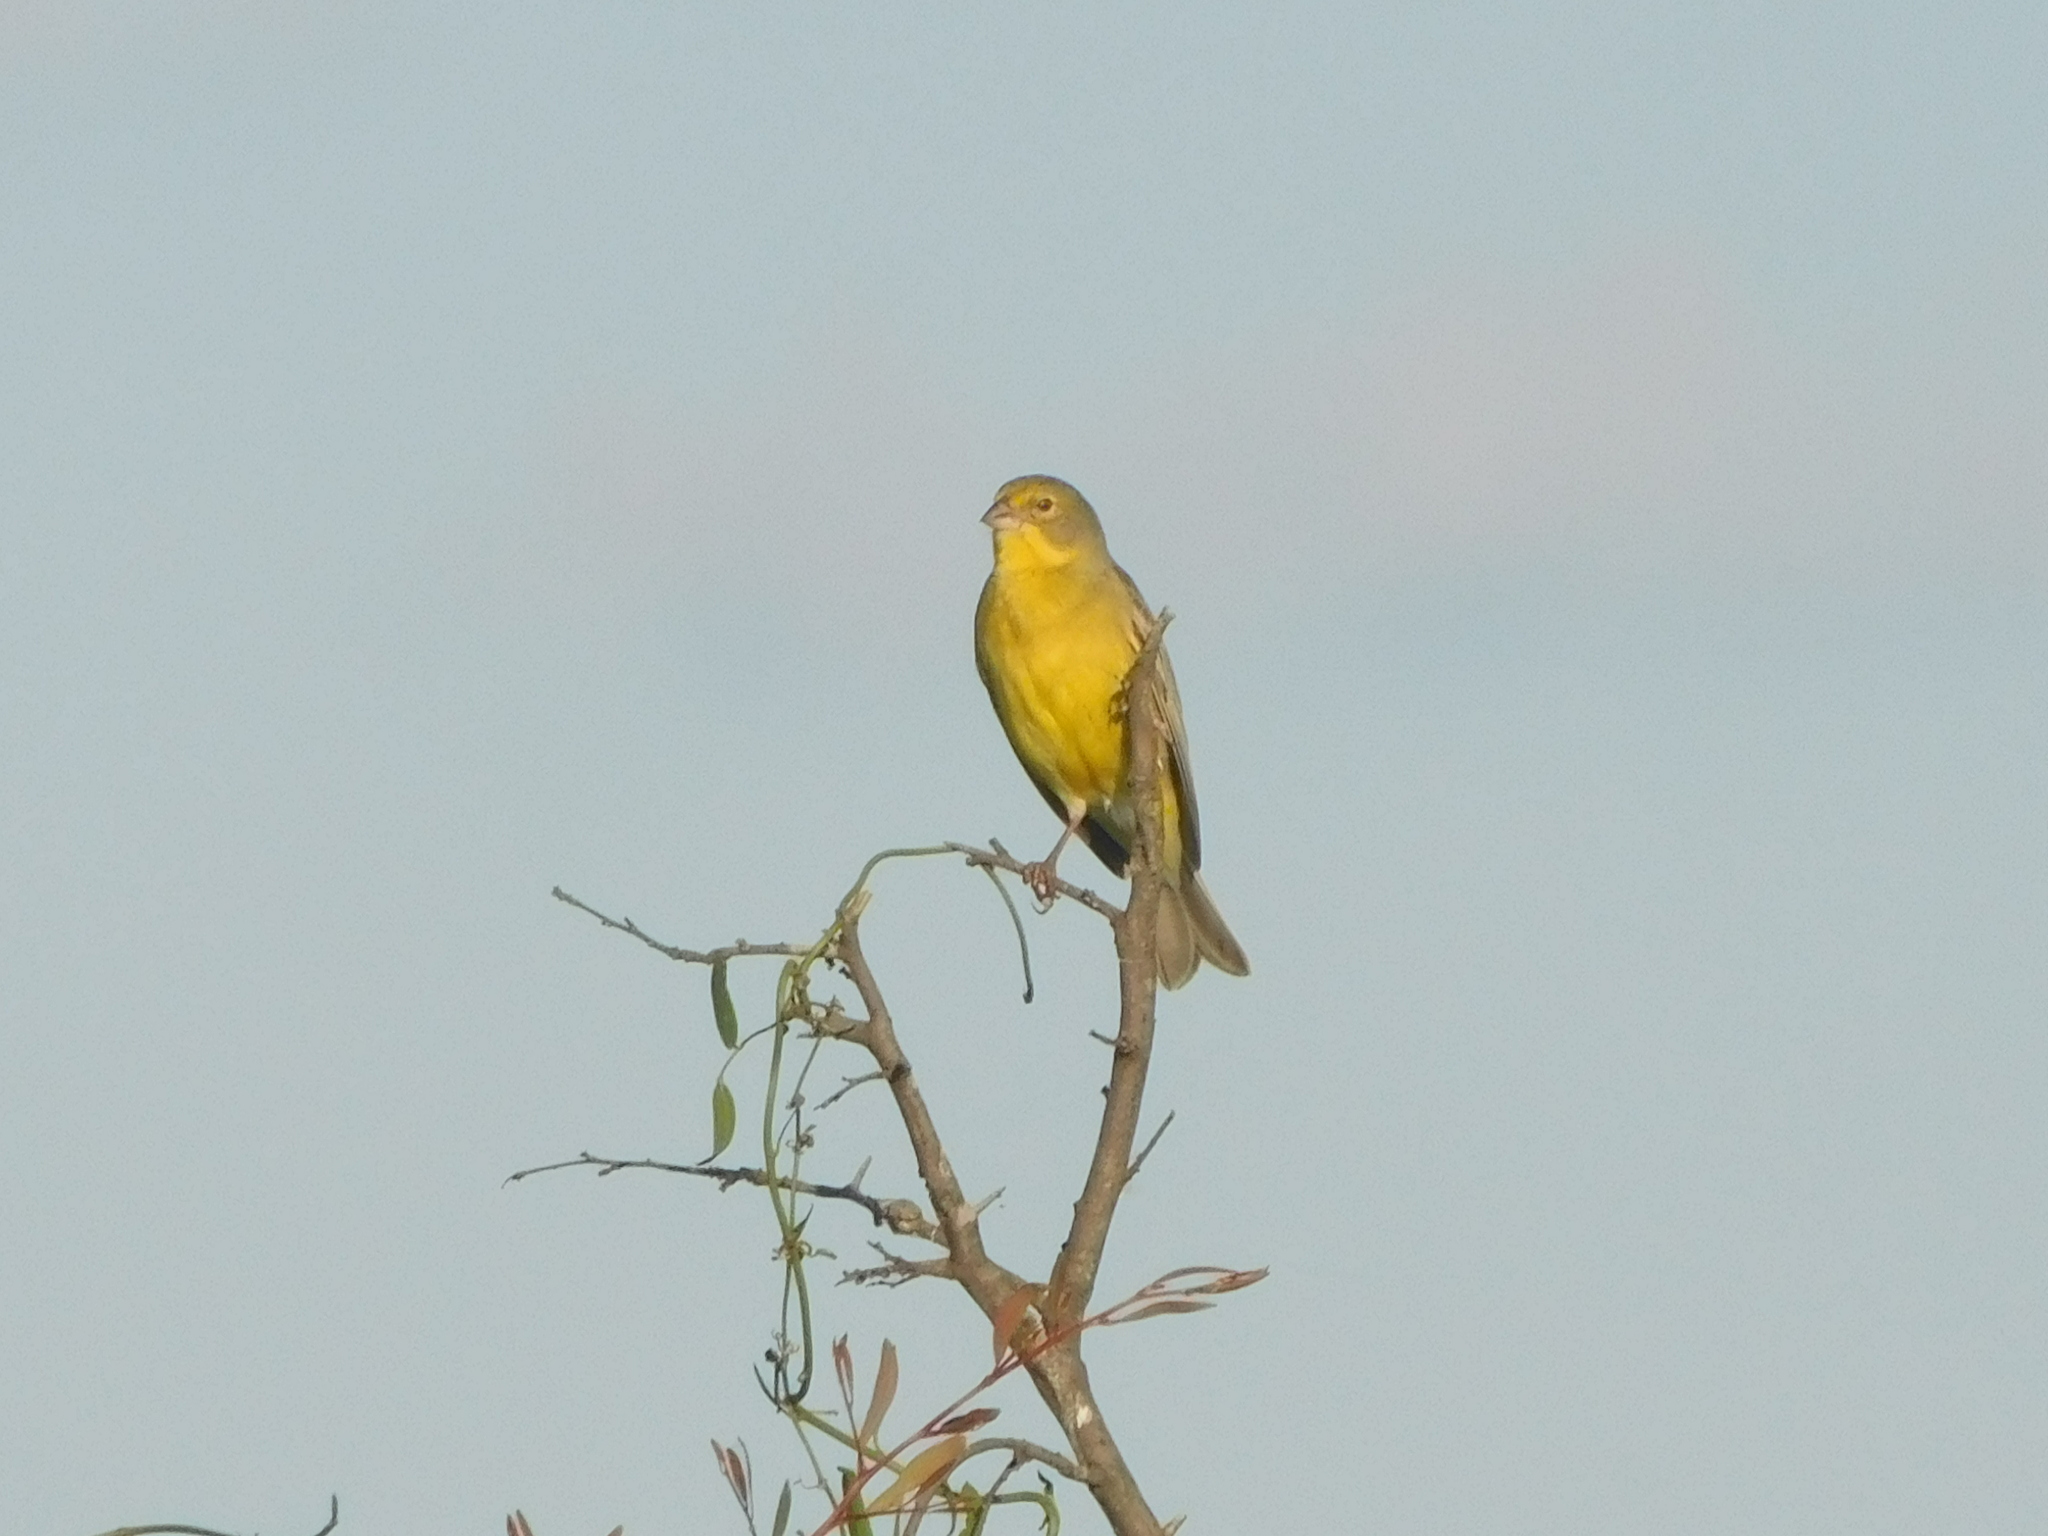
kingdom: Animalia
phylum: Chordata
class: Aves
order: Passeriformes
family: Thraupidae
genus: Sicalis
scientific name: Sicalis luteola
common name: Grassland yellow-finch
